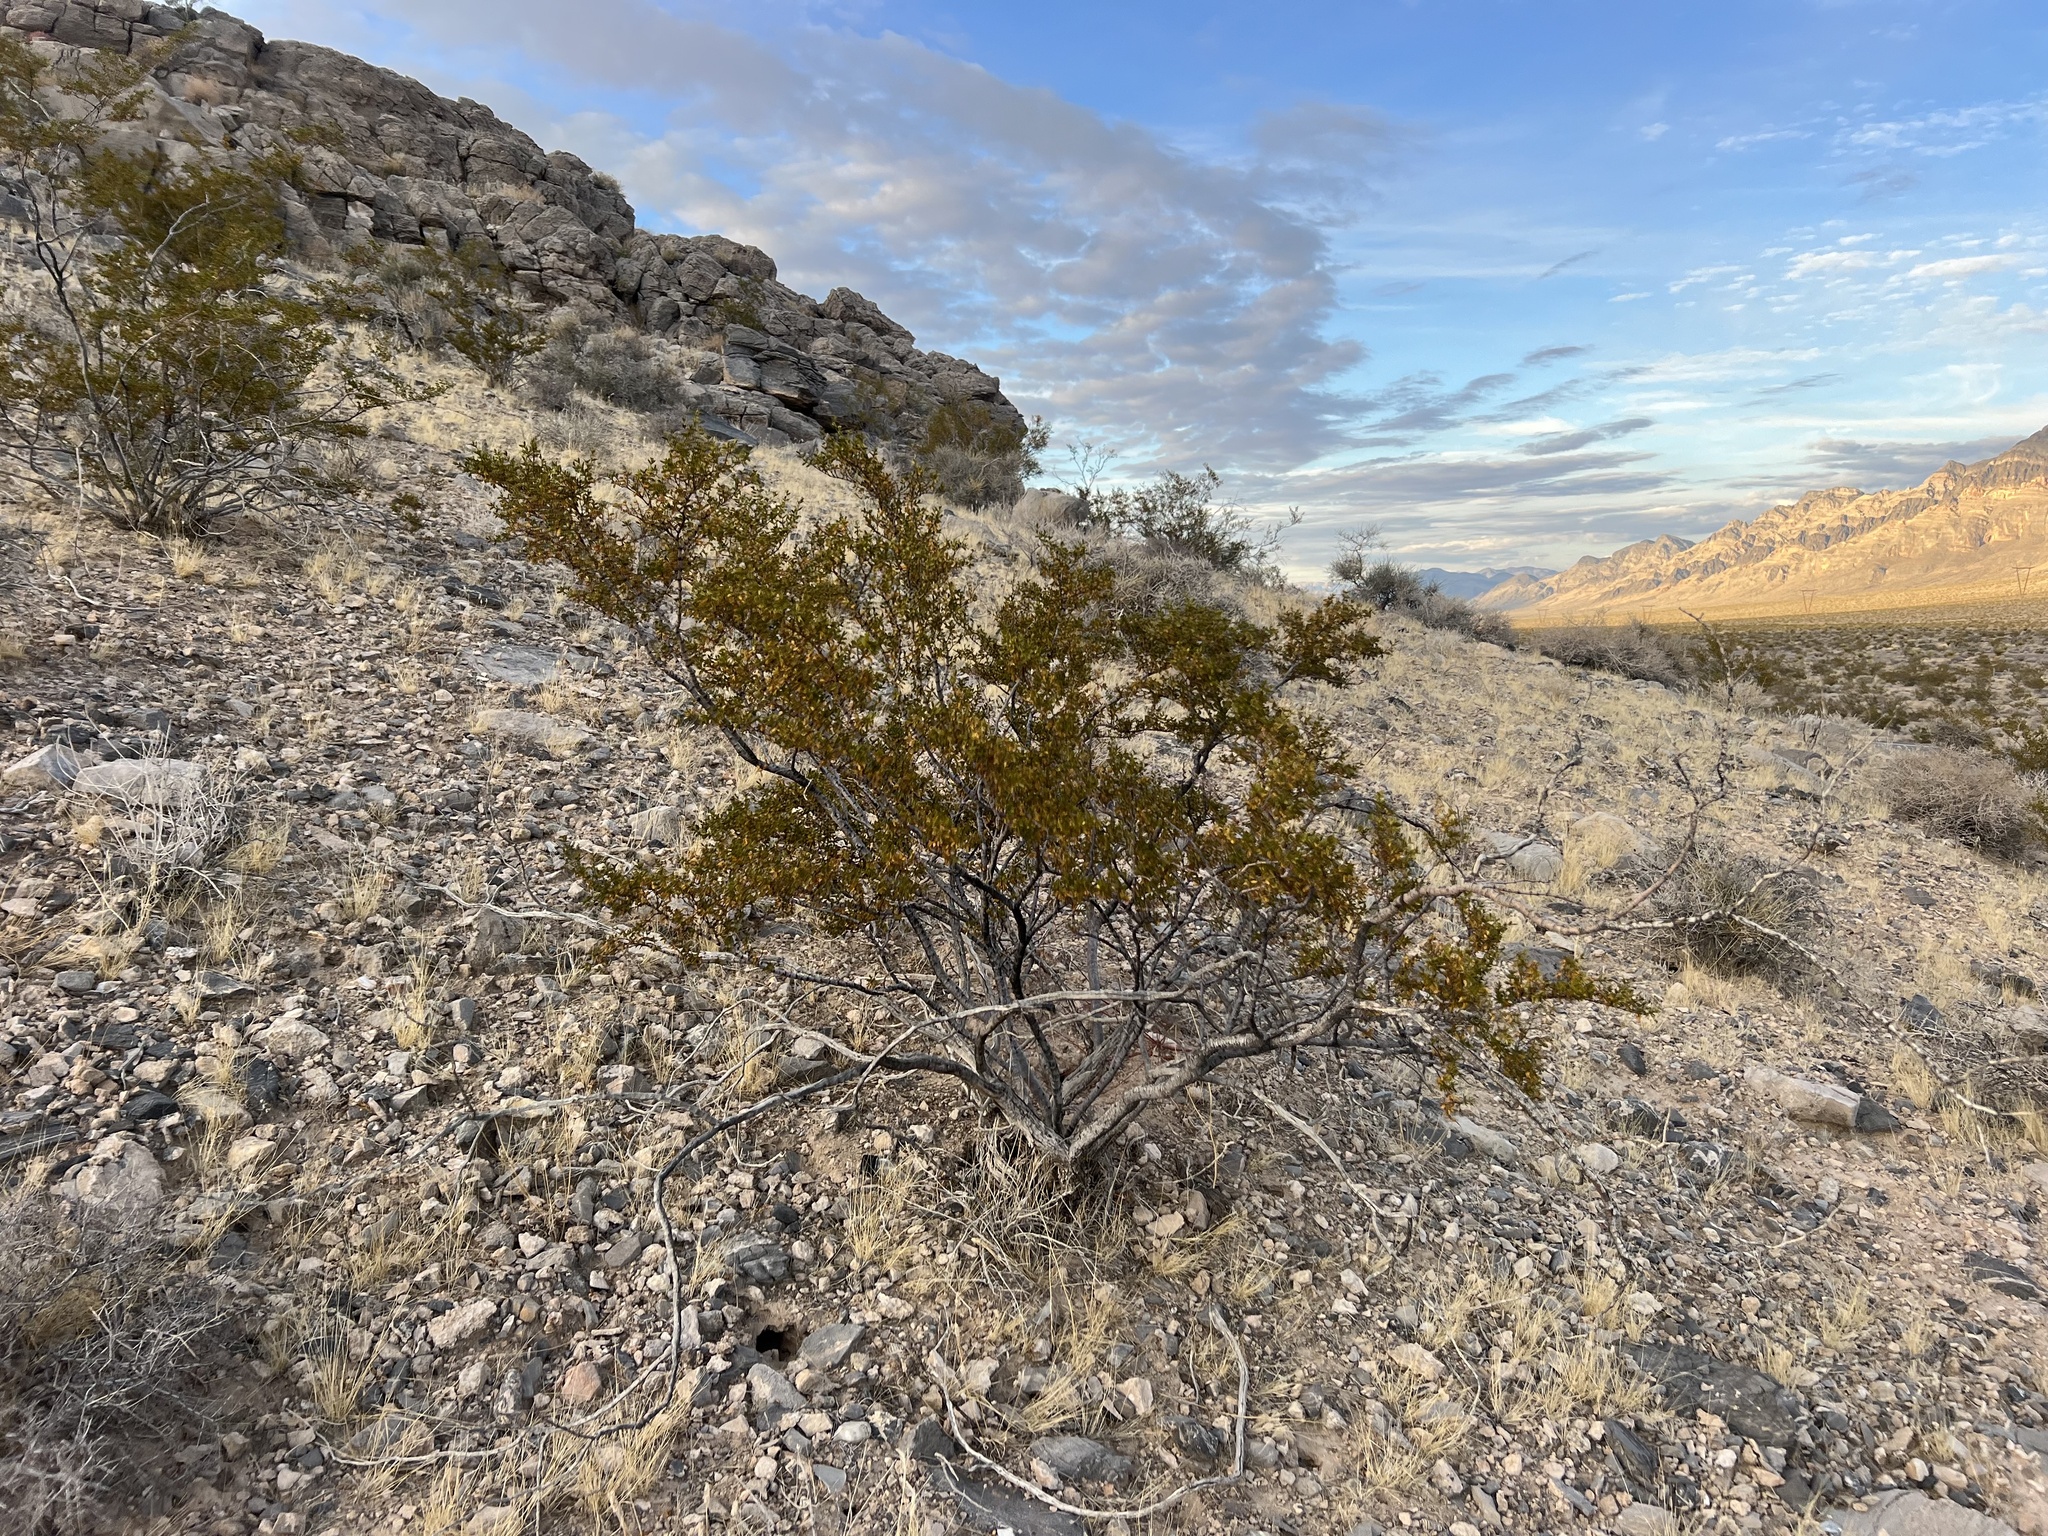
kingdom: Plantae
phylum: Tracheophyta
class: Magnoliopsida
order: Zygophyllales
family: Zygophyllaceae
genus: Larrea
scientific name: Larrea tridentata
